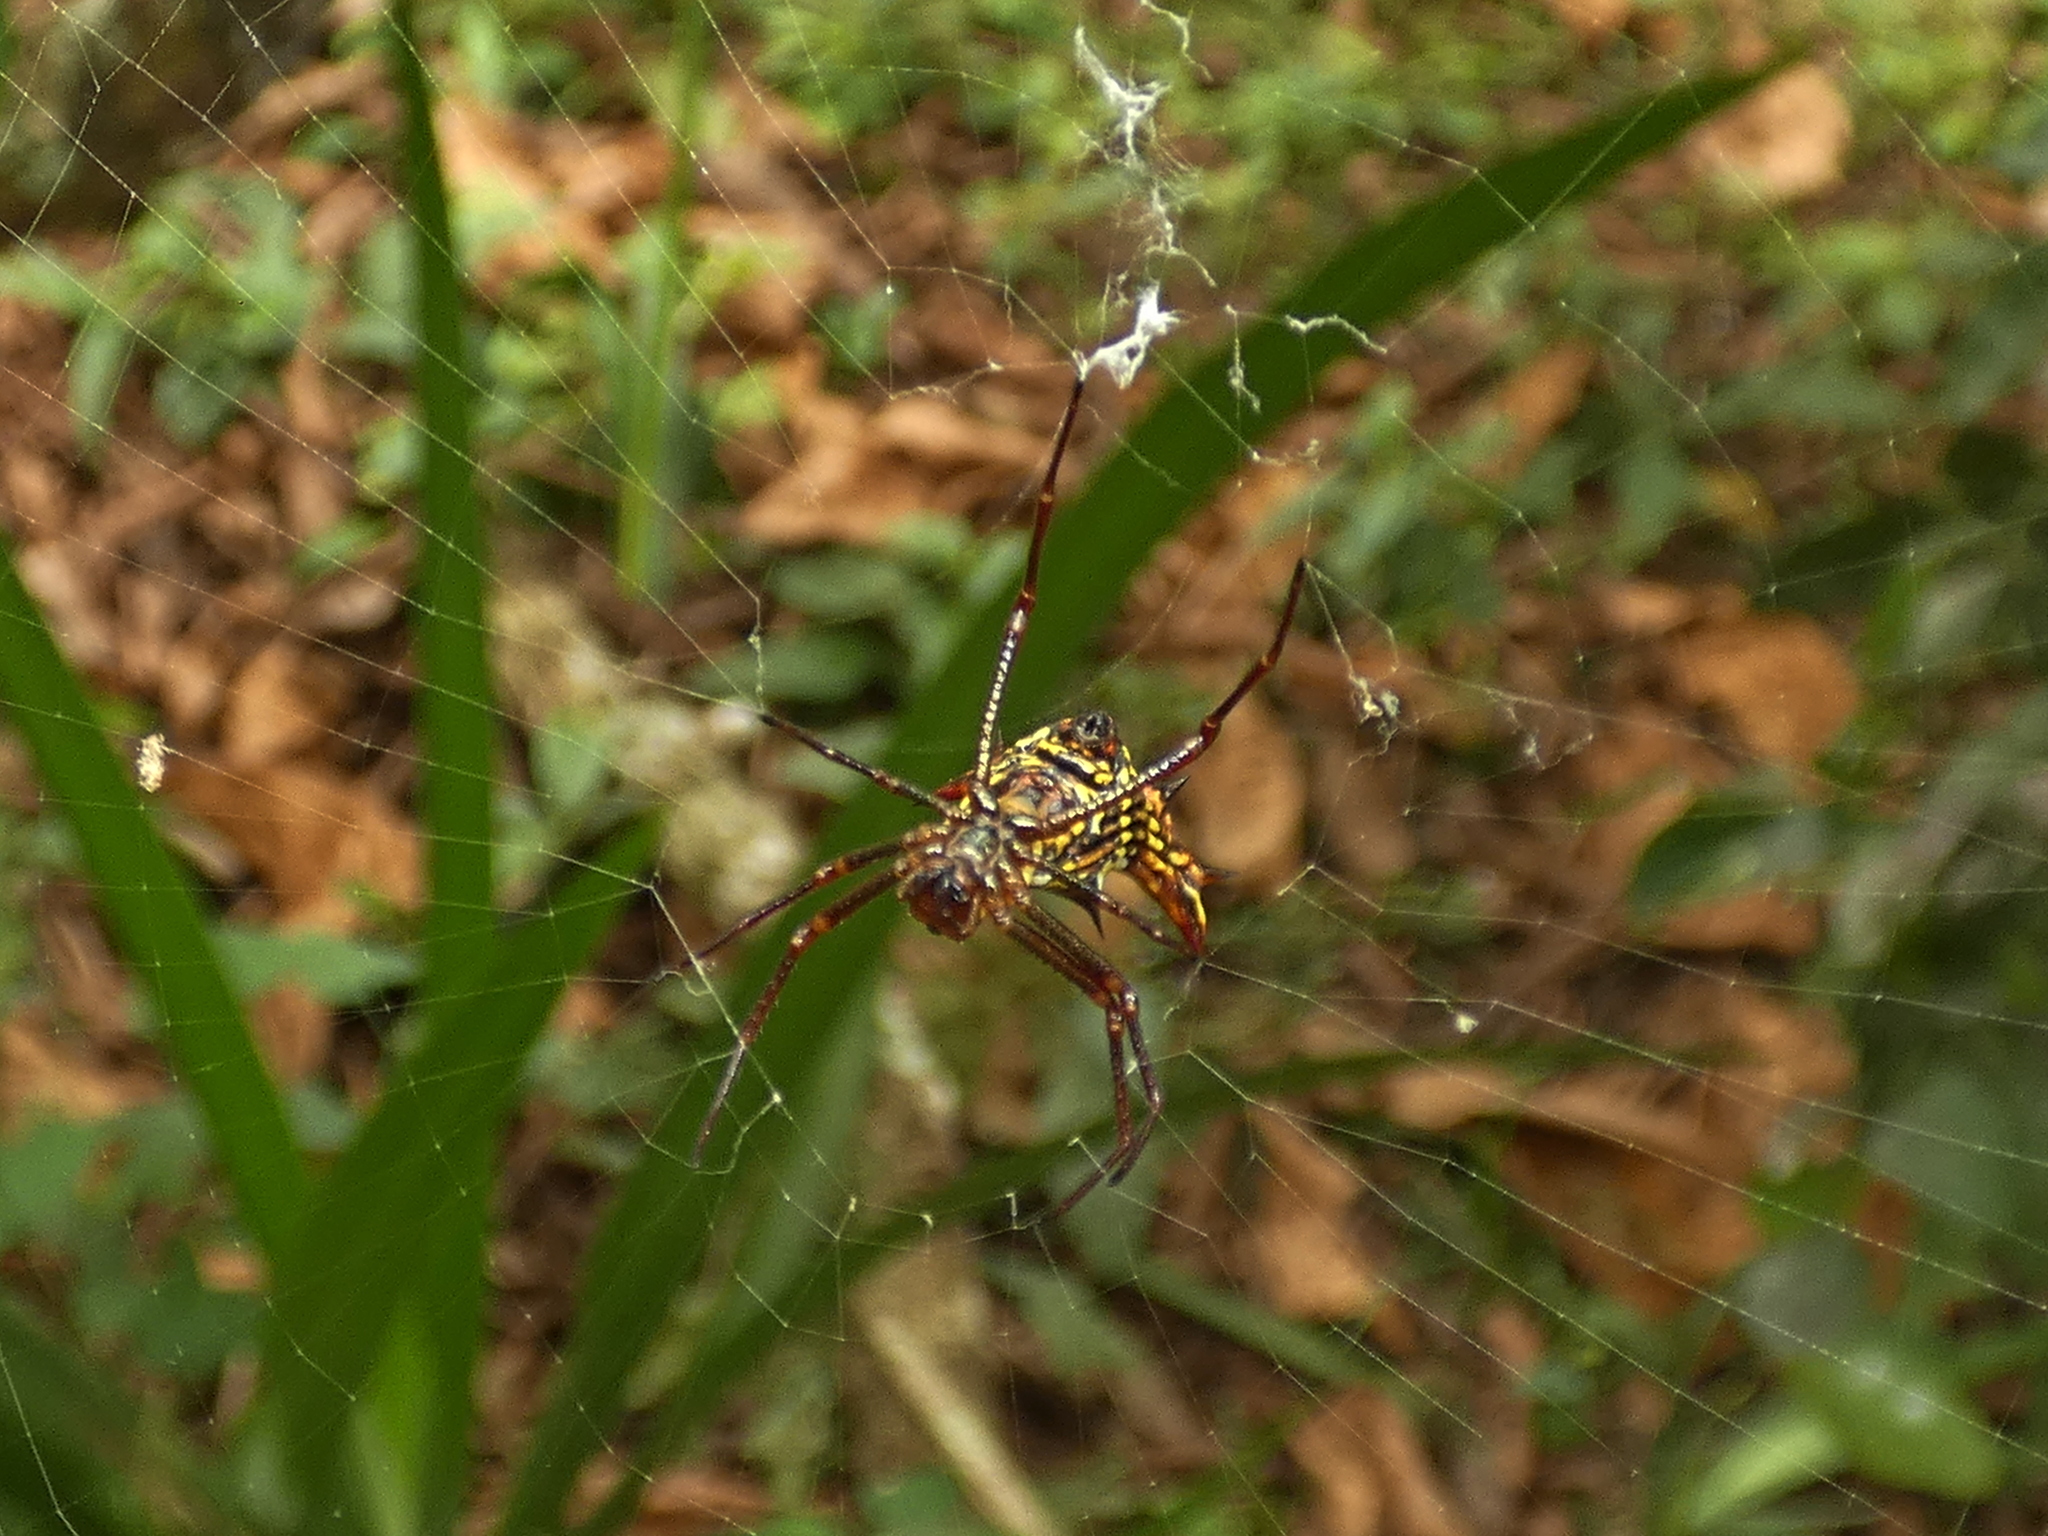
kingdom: Animalia
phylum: Arthropoda
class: Arachnida
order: Araneae
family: Araneidae
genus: Micrathena
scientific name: Micrathena fissispina
